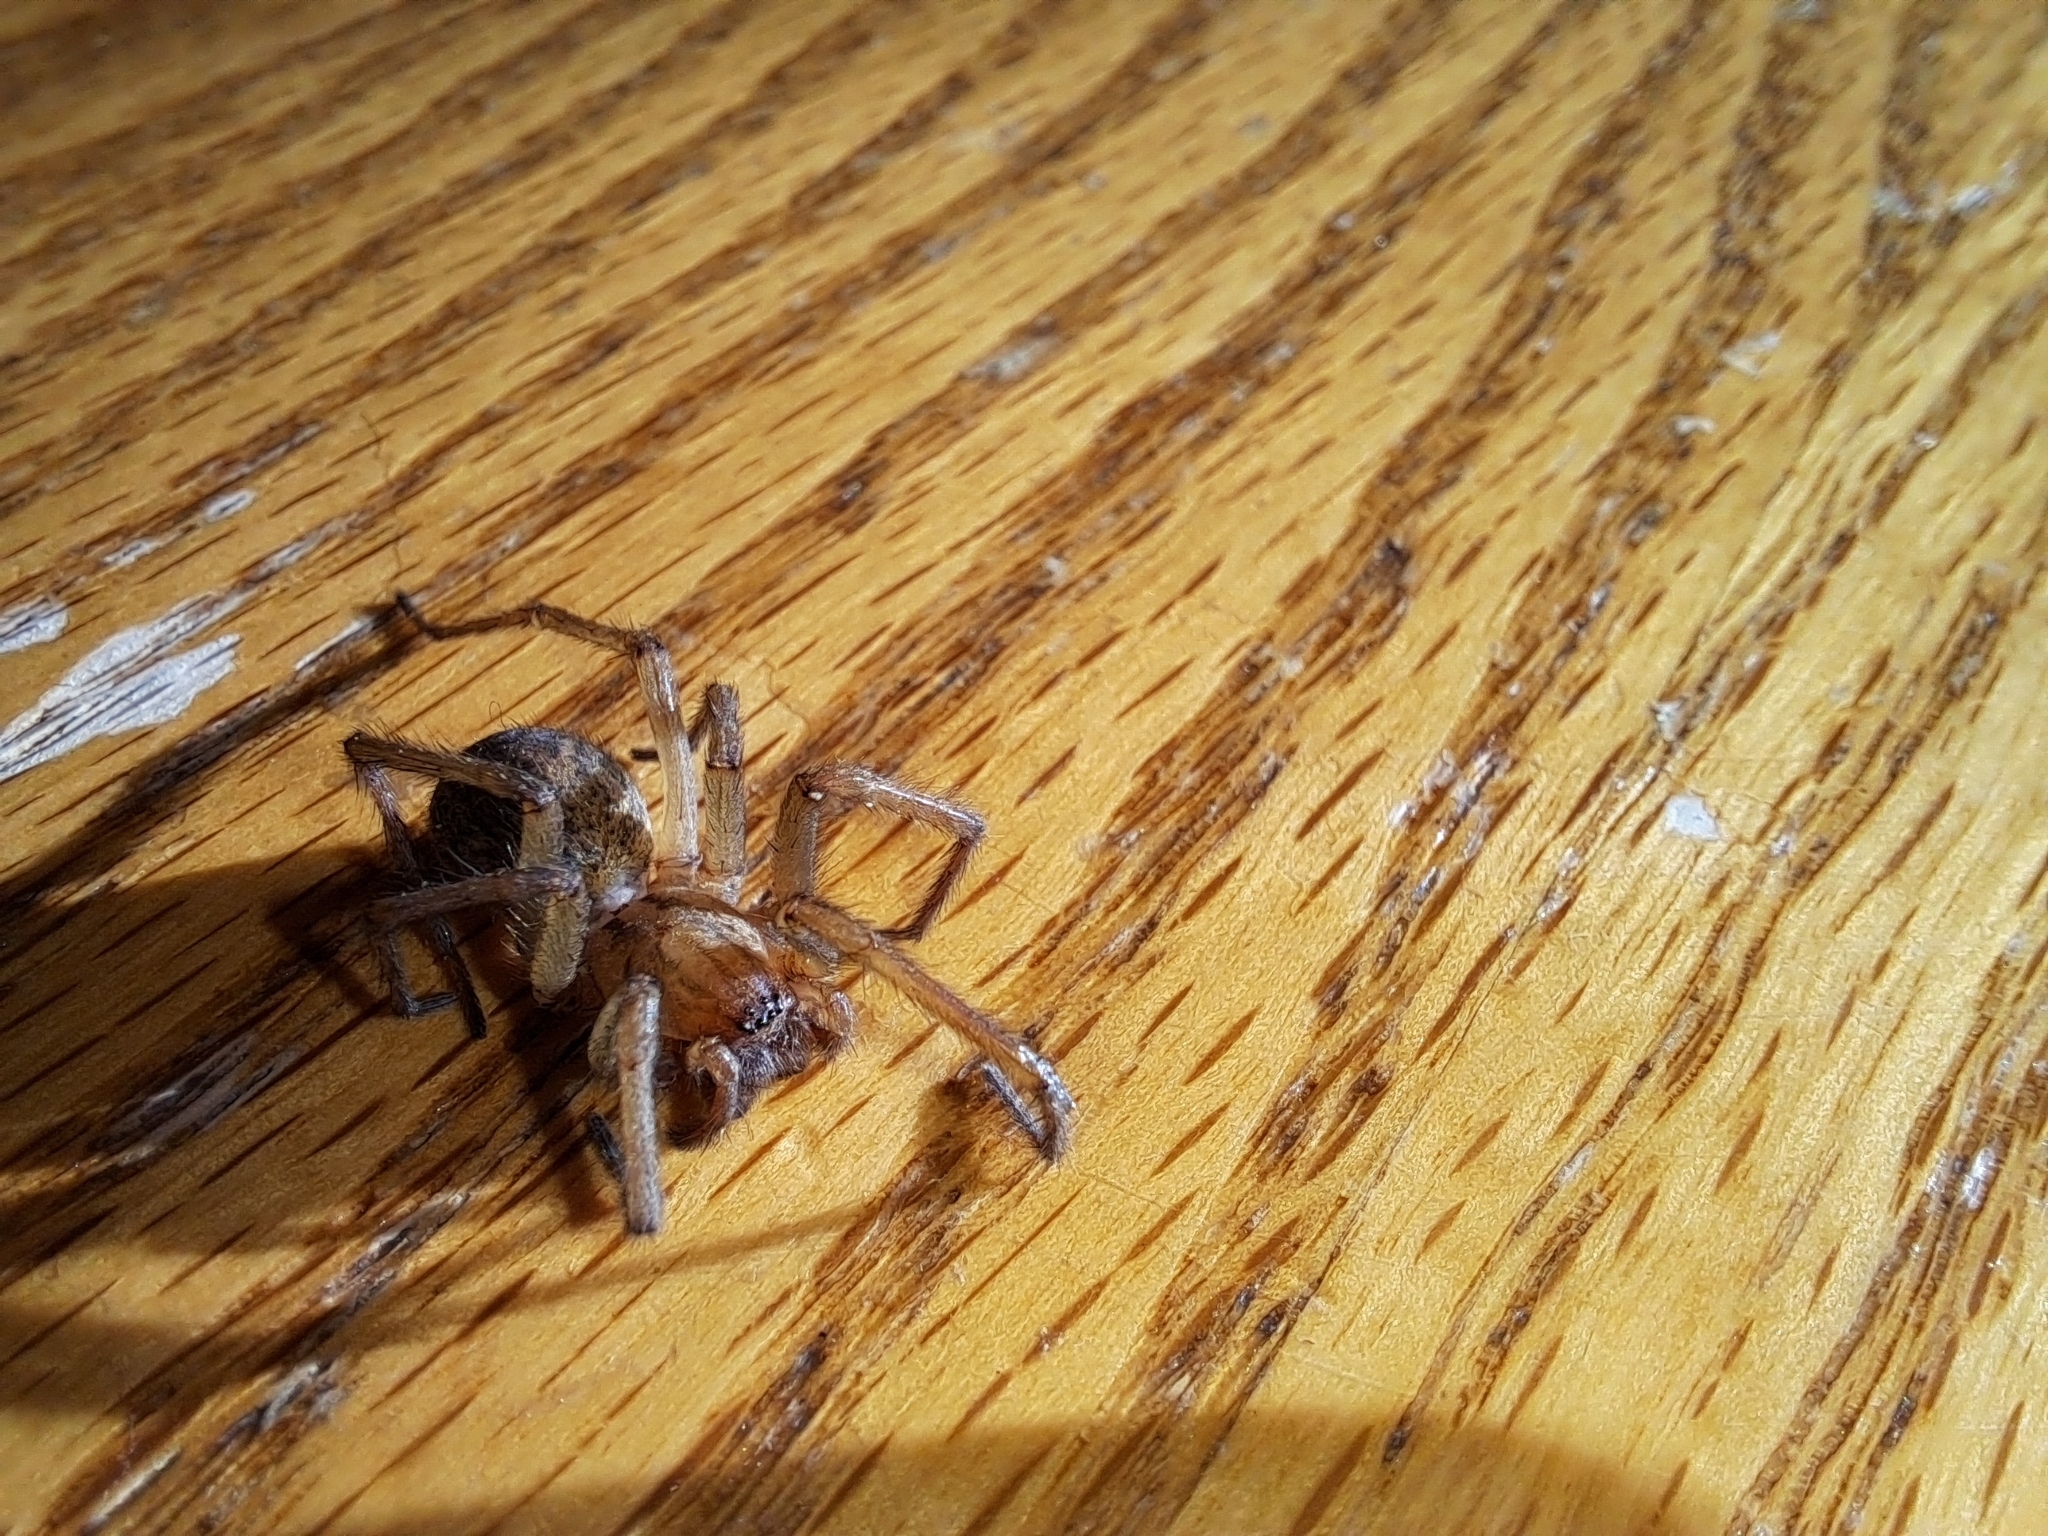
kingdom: Animalia
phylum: Arthropoda
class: Arachnida
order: Araneae
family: Agelenidae
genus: Eratigena
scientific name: Eratigena agrestis
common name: Hobo spider
